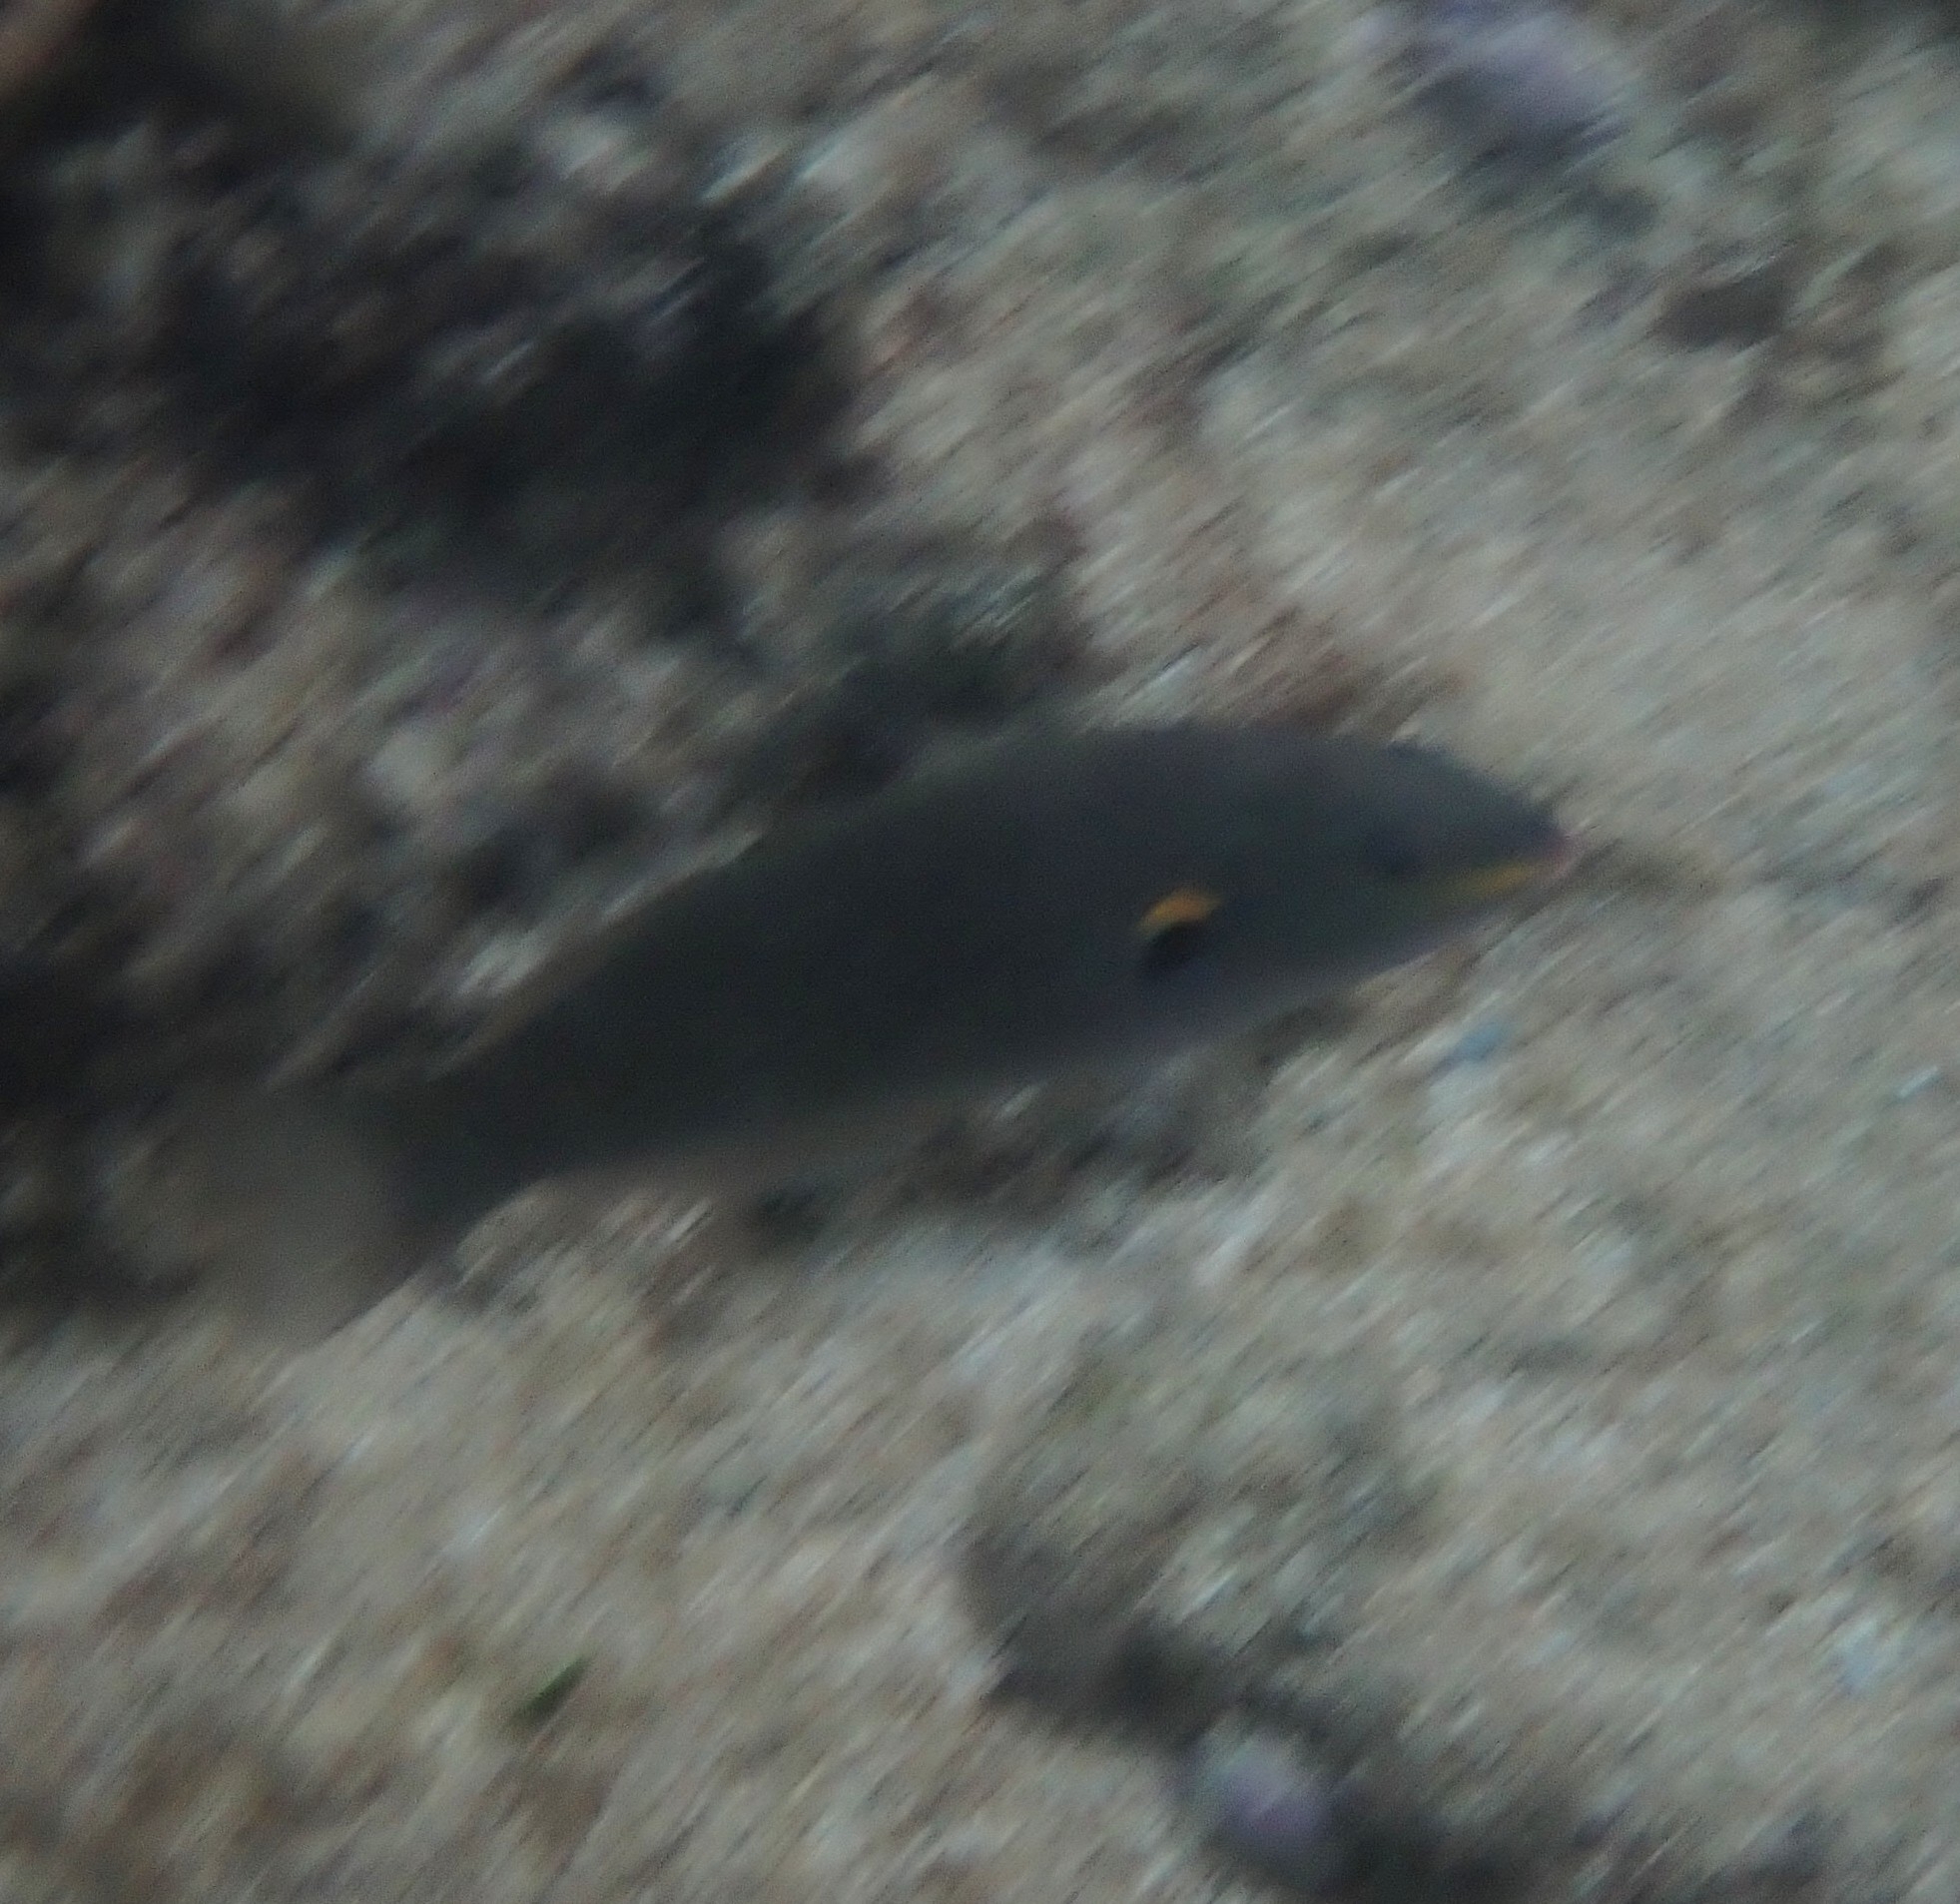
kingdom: Animalia
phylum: Chordata
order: Perciformes
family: Labridae
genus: Stethojulis
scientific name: Stethojulis balteata
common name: Belted wrasse
